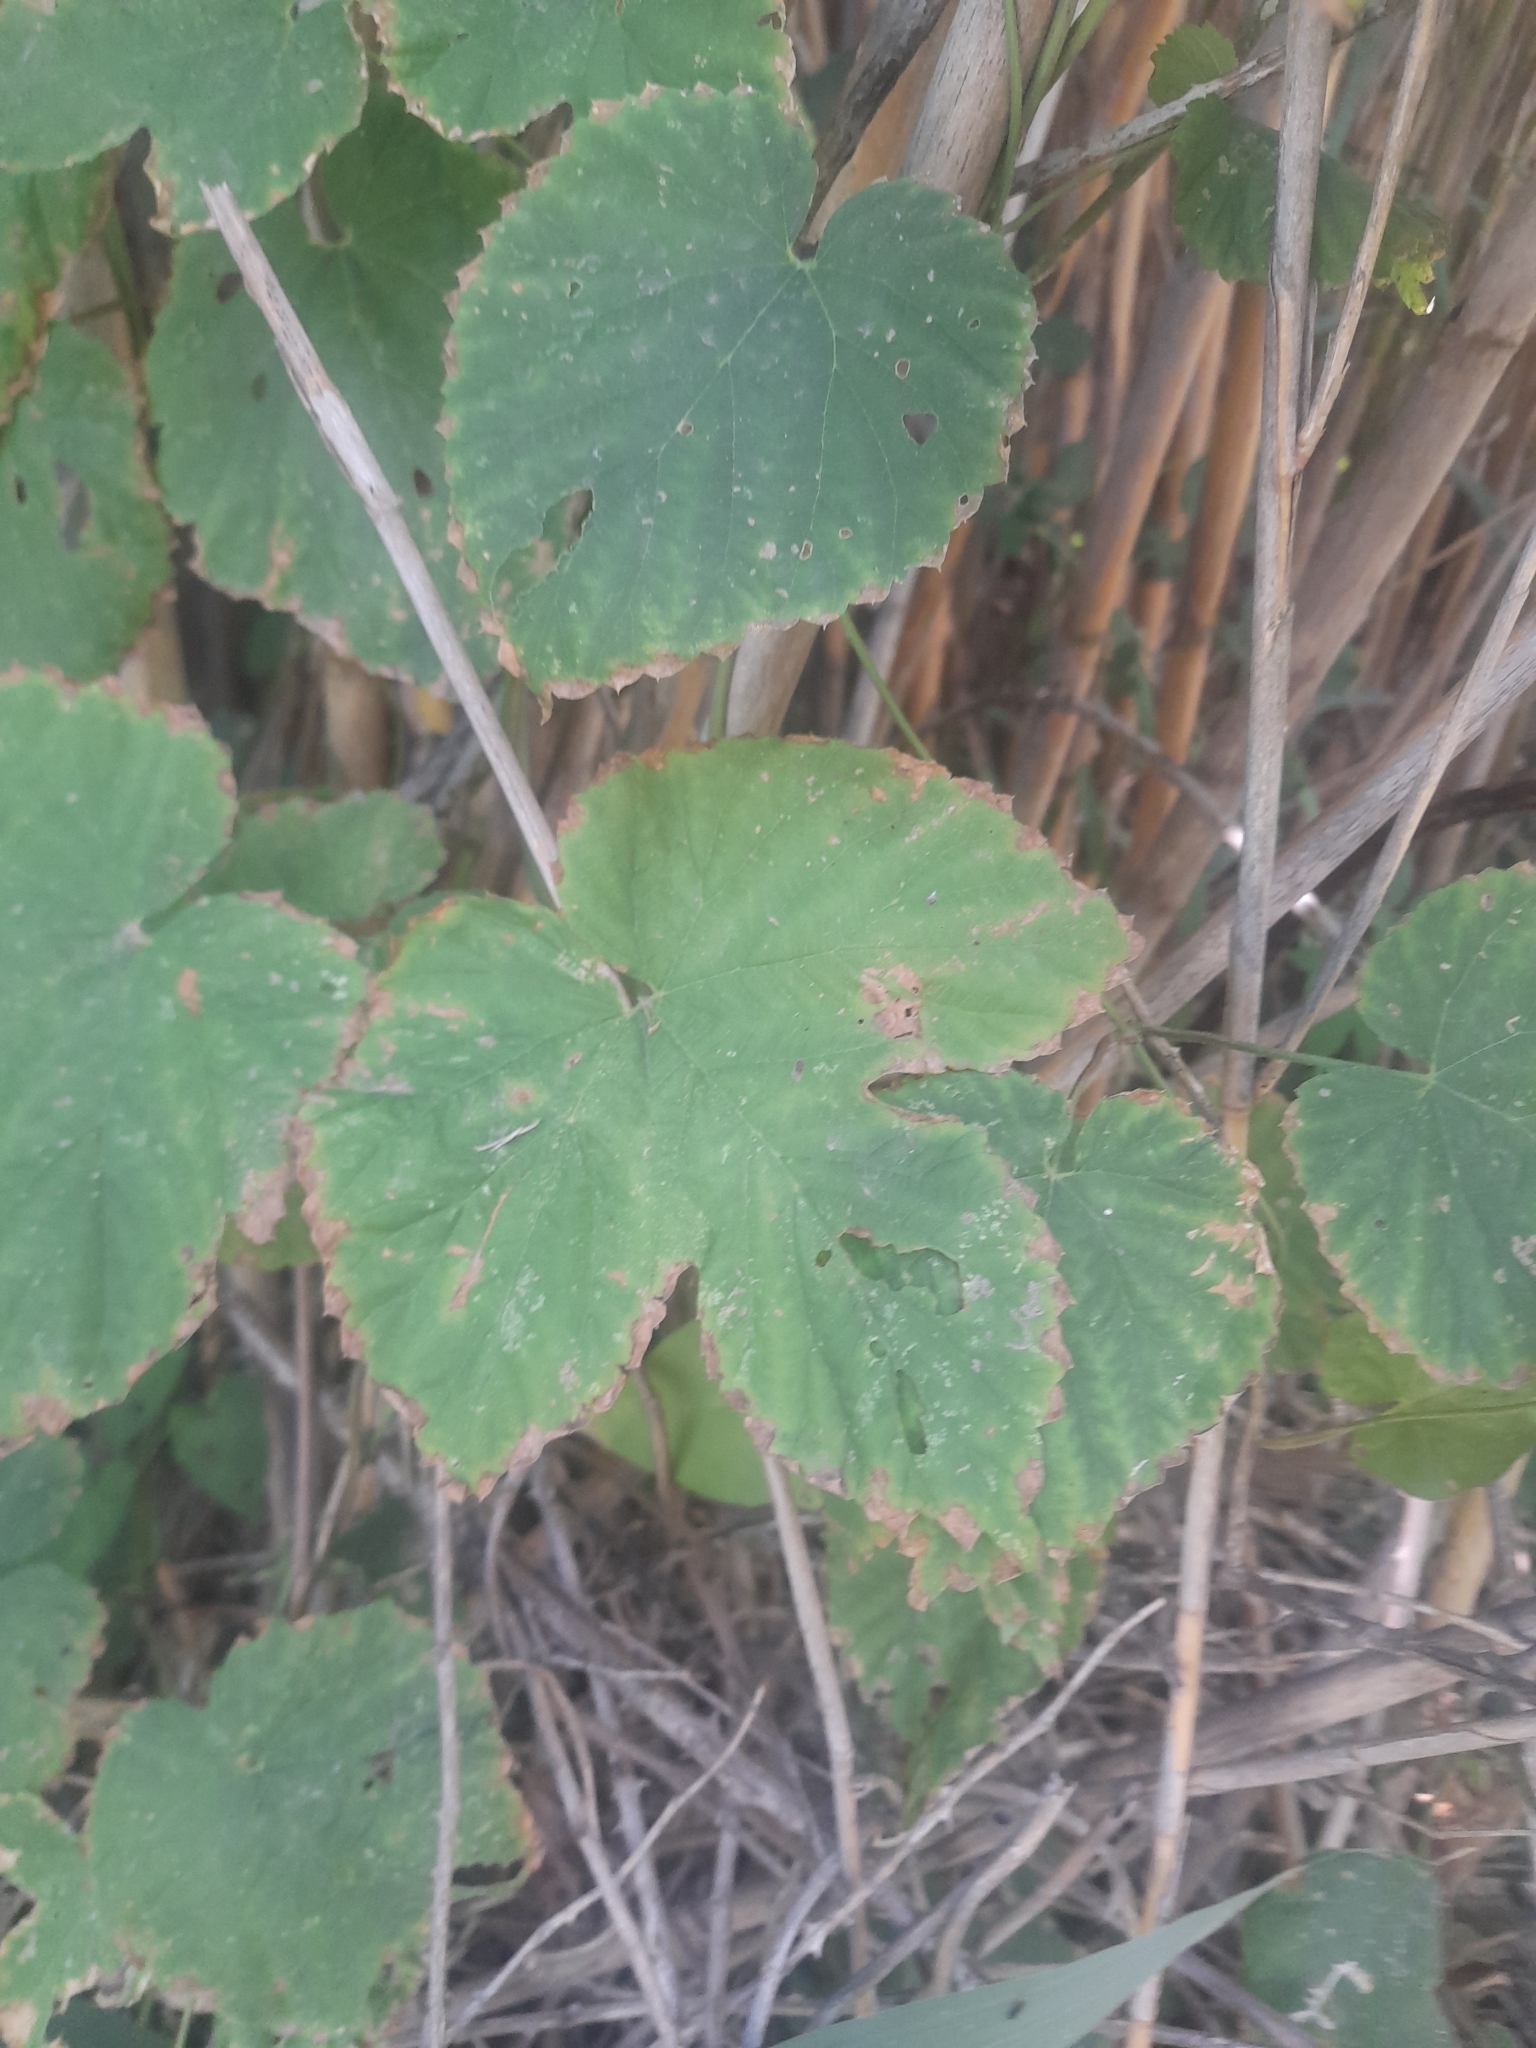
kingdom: Plantae
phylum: Tracheophyta
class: Magnoliopsida
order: Rosales
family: Cannabaceae
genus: Humulus
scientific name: Humulus lupulus
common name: Hop
